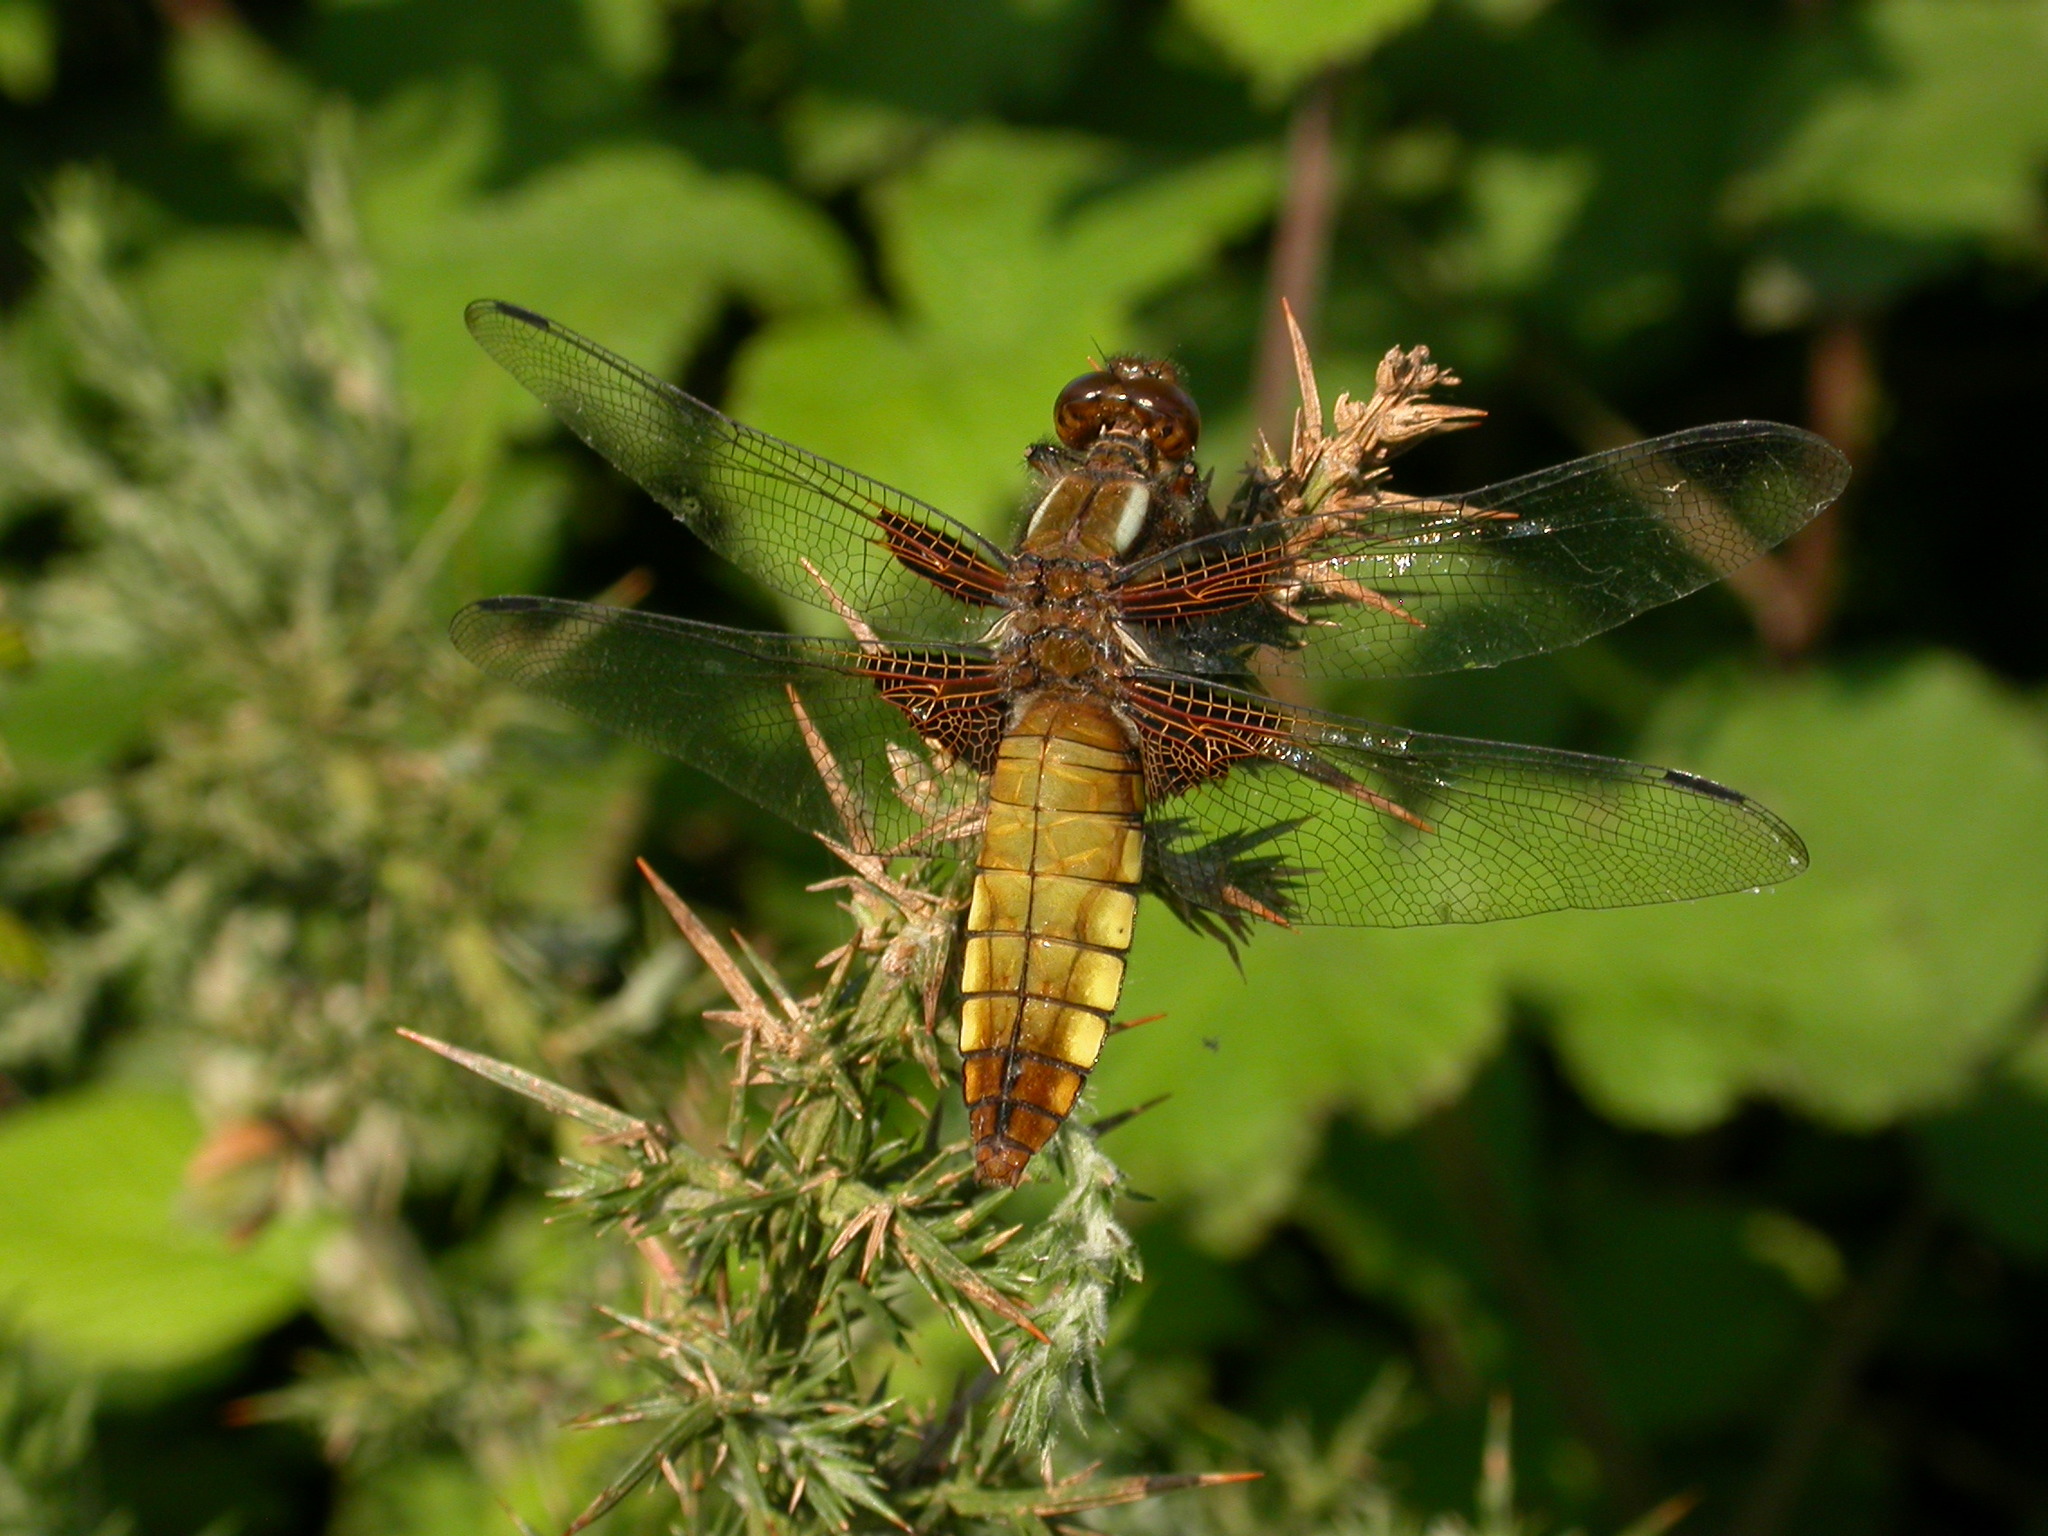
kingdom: Animalia
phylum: Arthropoda
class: Insecta
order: Odonata
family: Libellulidae
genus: Libellula
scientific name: Libellula depressa
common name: Broad-bodied chaser
